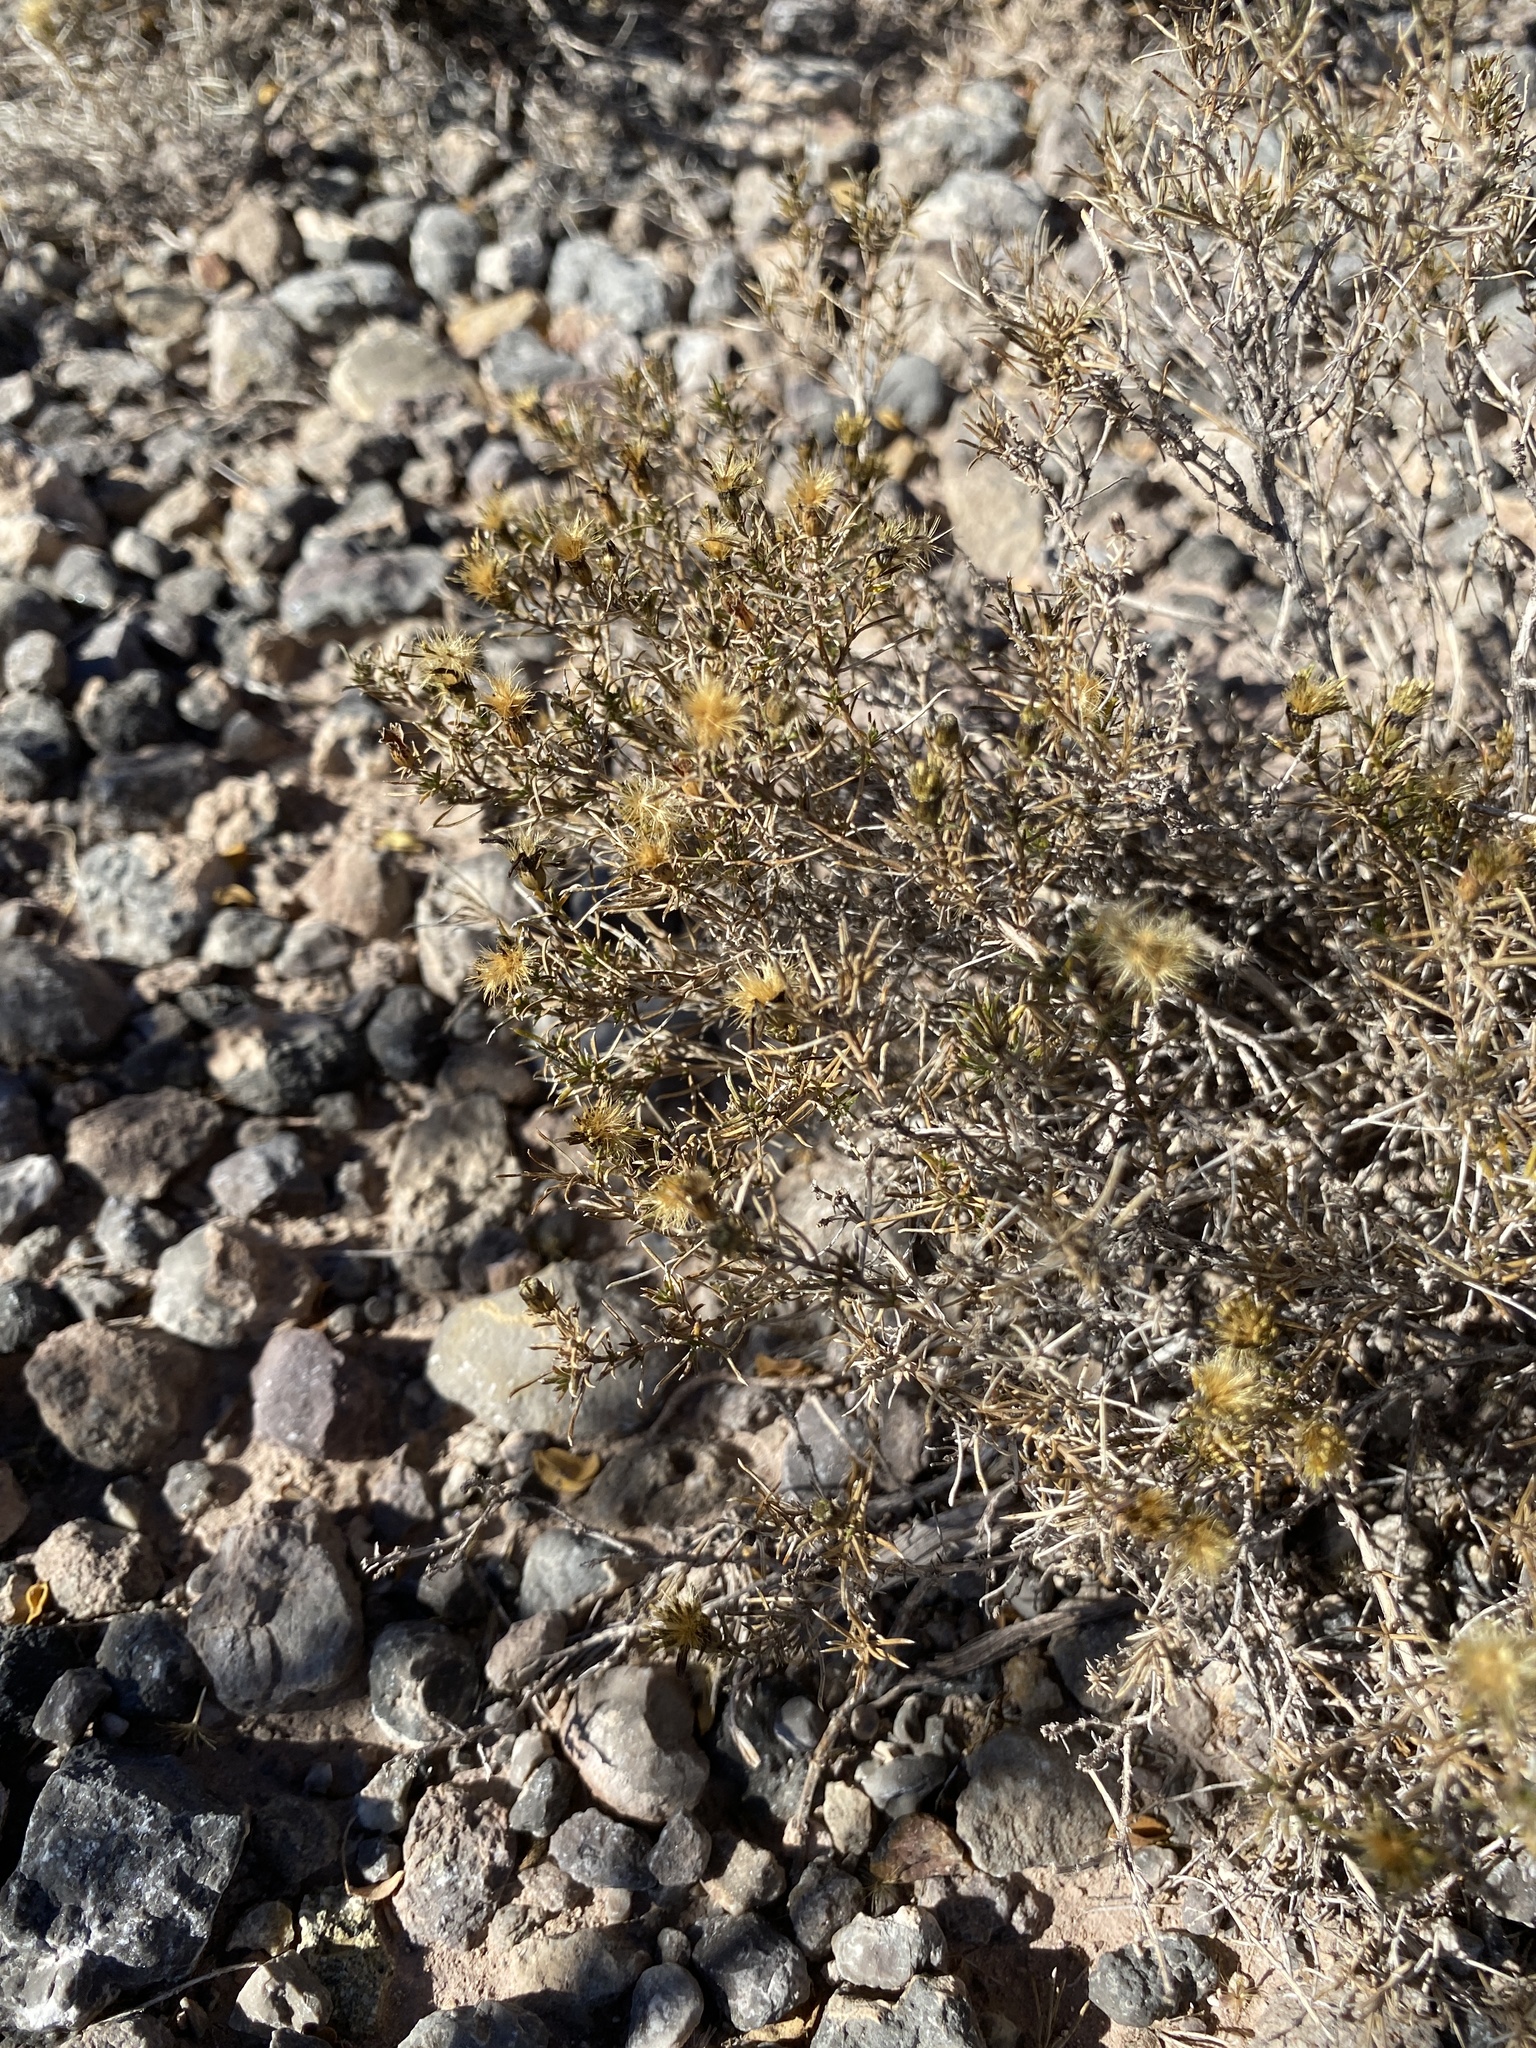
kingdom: Plantae
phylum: Tracheophyta
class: Magnoliopsida
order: Asterales
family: Asteraceae
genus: Thymophylla
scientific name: Thymophylla acerosa
